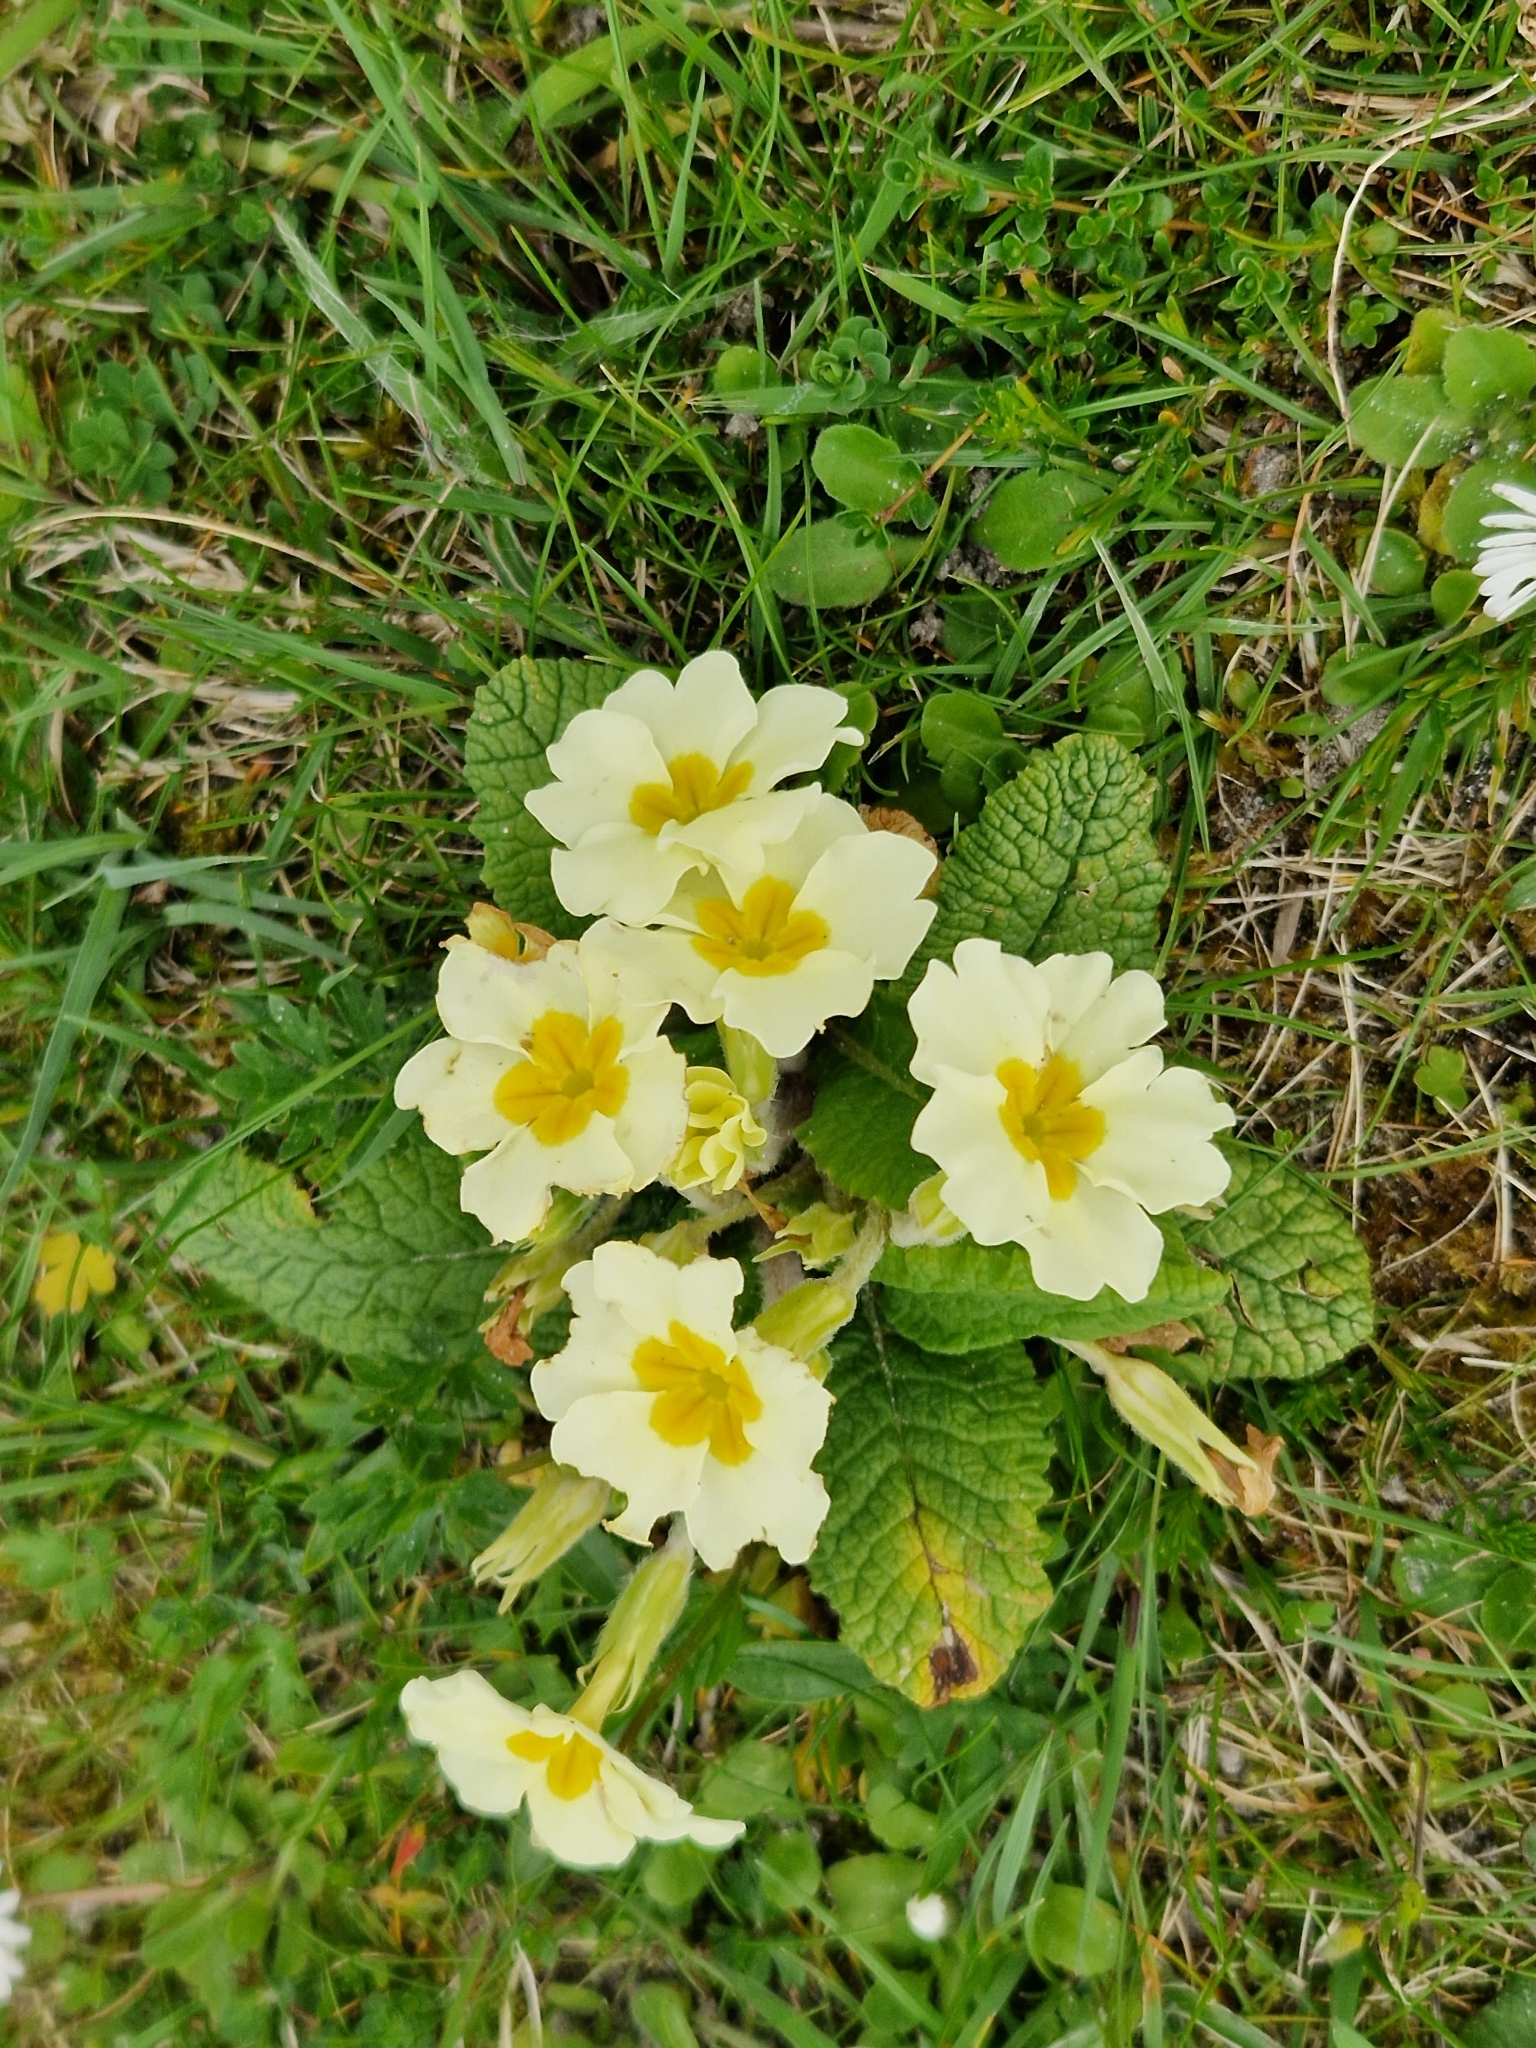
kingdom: Plantae
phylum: Tracheophyta
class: Magnoliopsida
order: Ericales
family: Primulaceae
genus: Primula
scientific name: Primula vulgaris
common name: Primrose
